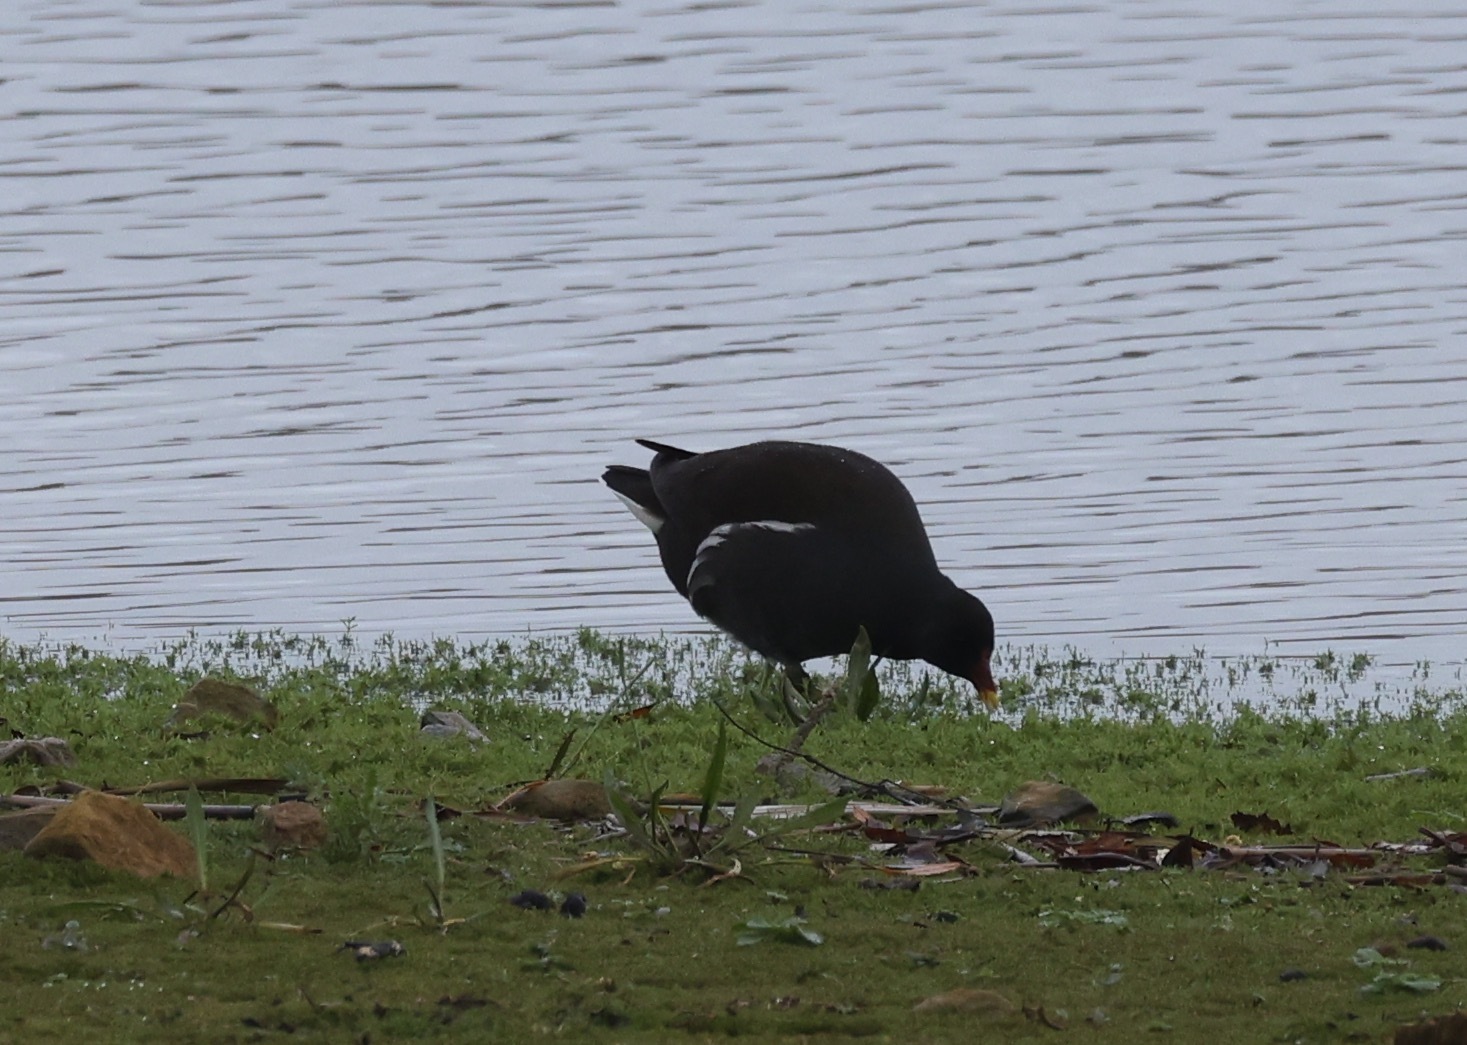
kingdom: Animalia
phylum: Chordata
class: Aves
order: Gruiformes
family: Rallidae
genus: Gallinula
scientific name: Gallinula chloropus
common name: Common moorhen
